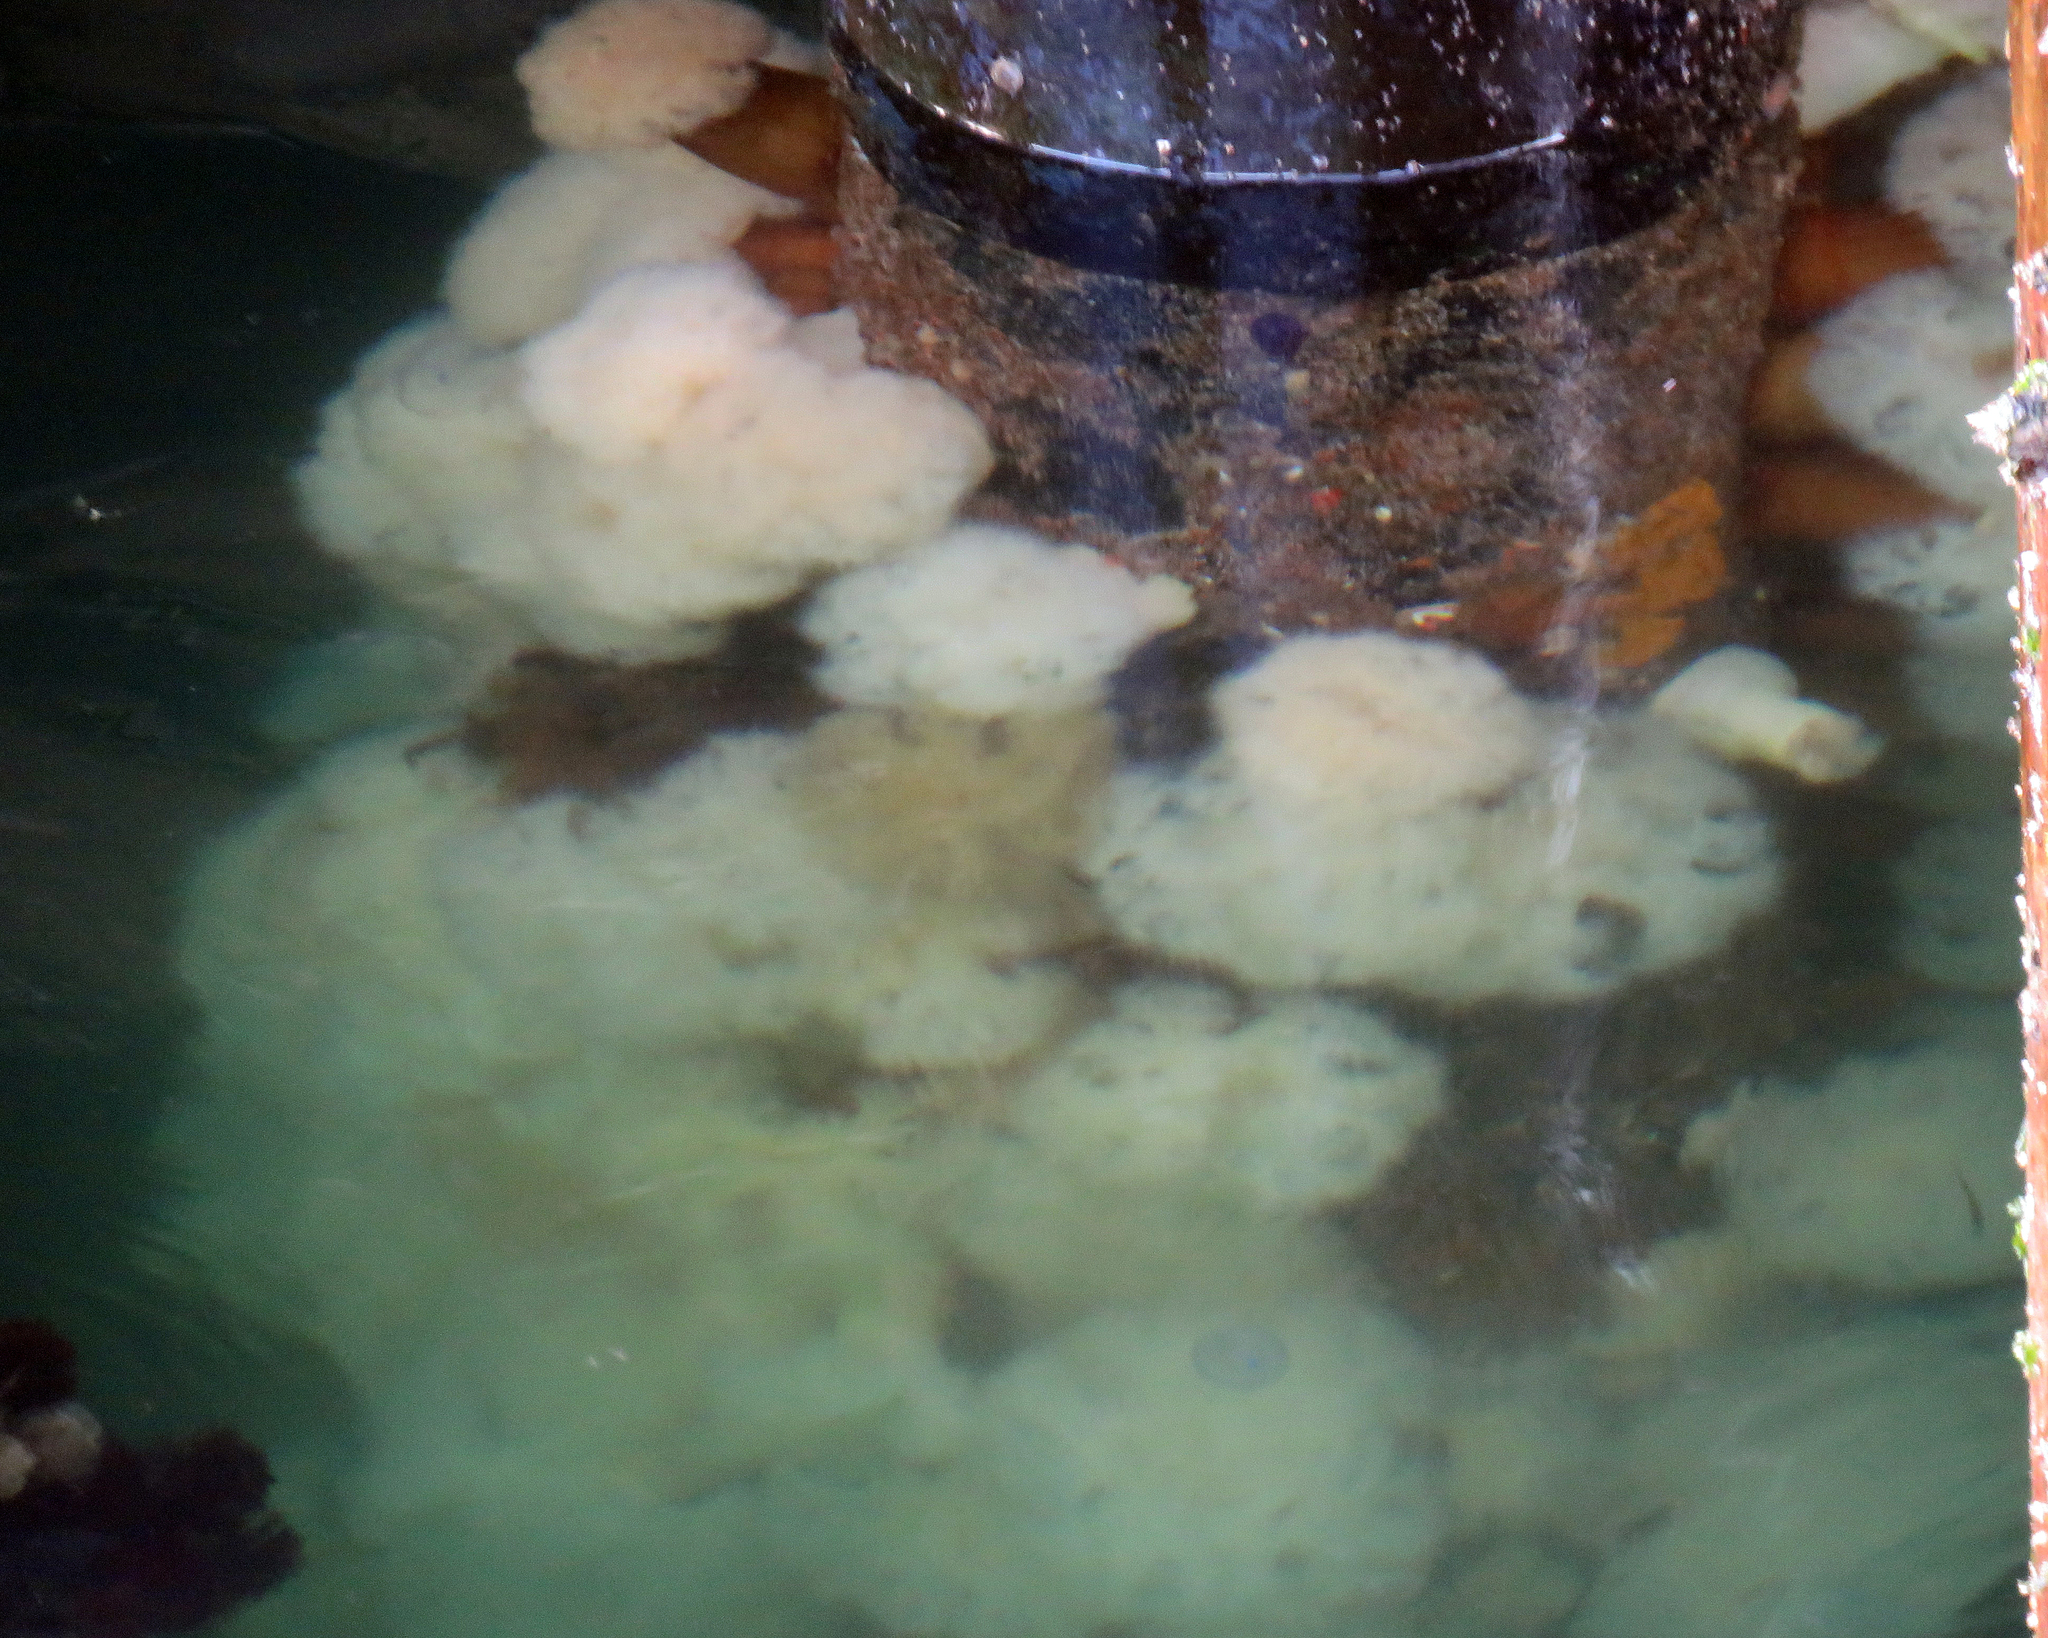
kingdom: Animalia
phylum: Cnidaria
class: Anthozoa
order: Actiniaria
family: Metridiidae
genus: Metridium
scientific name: Metridium farcimen
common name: Gigantic anemone
